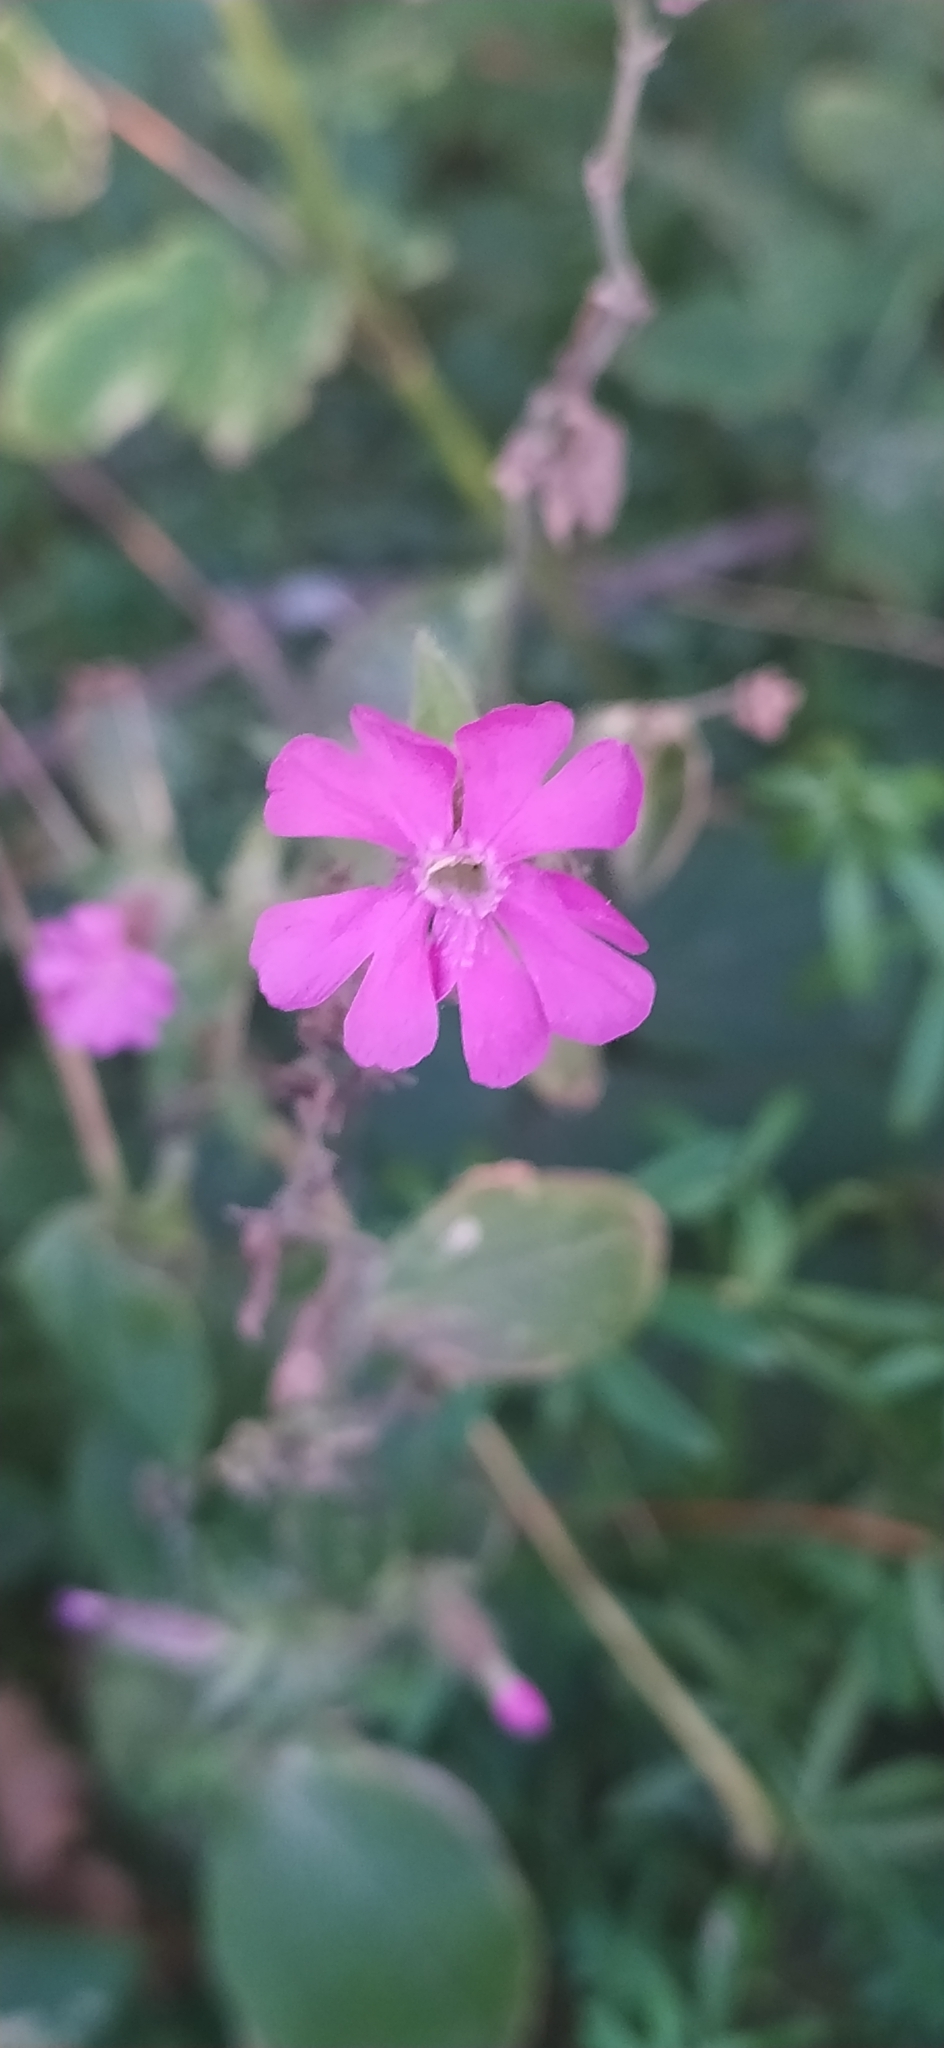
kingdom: Plantae
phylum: Tracheophyta
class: Magnoliopsida
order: Caryophyllales
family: Caryophyllaceae
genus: Silene
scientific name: Silene dioica
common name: Red campion
